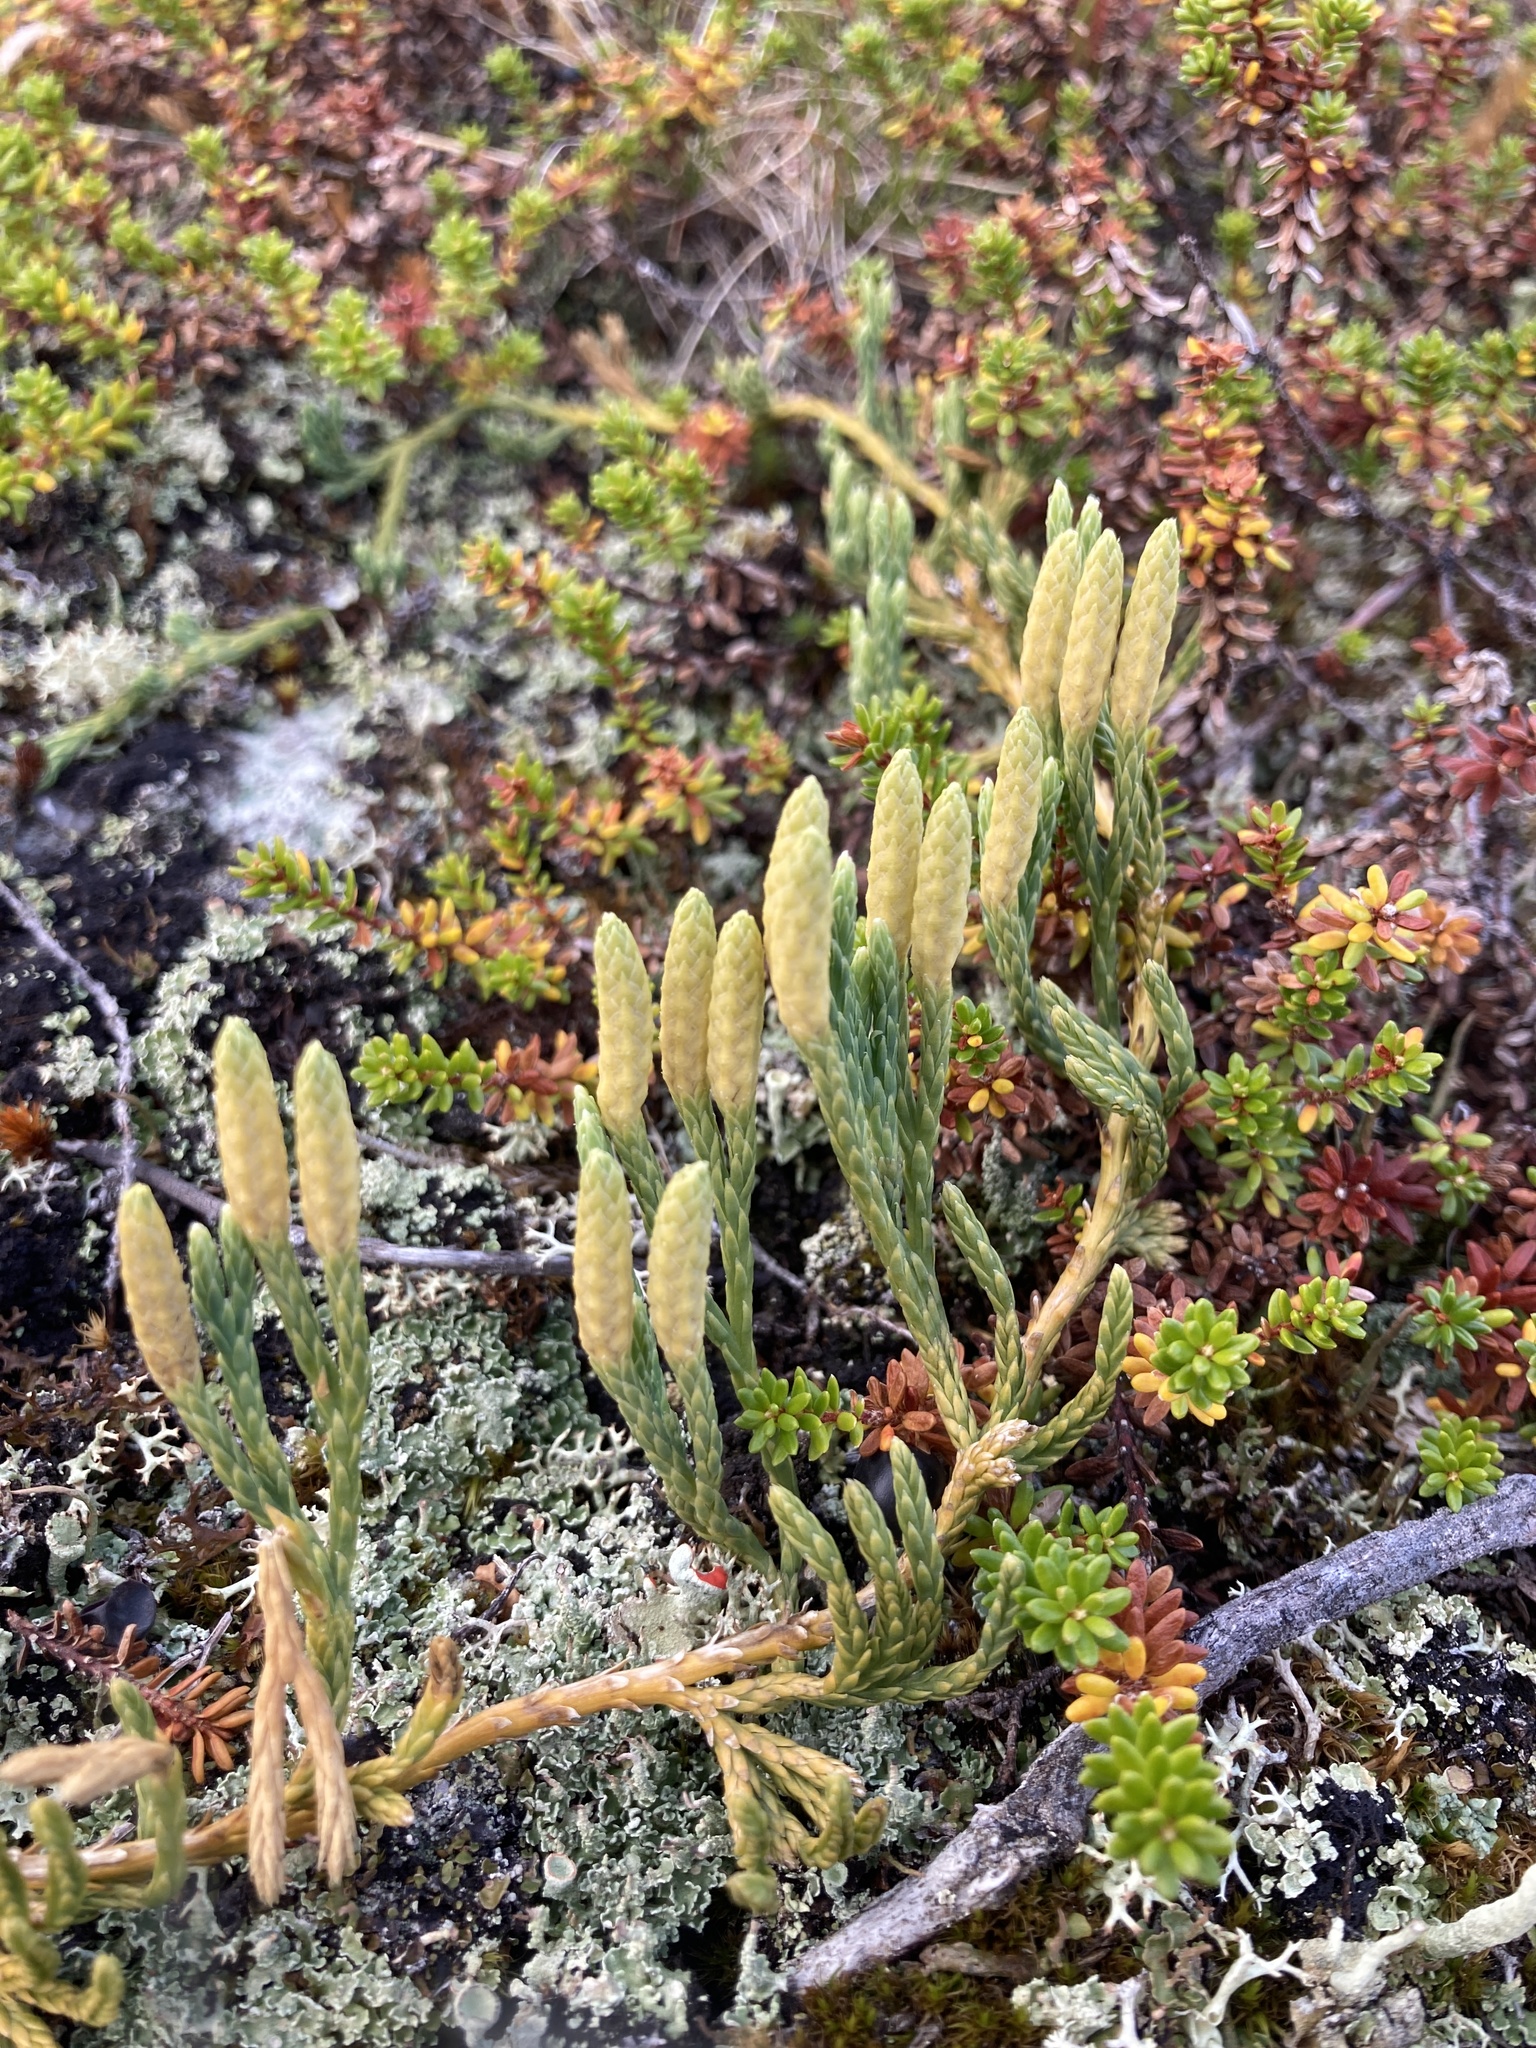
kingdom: Plantae
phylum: Tracheophyta
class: Lycopodiopsida
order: Lycopodiales
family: Lycopodiaceae
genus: Diphasiastrum
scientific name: Diphasiastrum alpinum
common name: Alpine clubmoss
